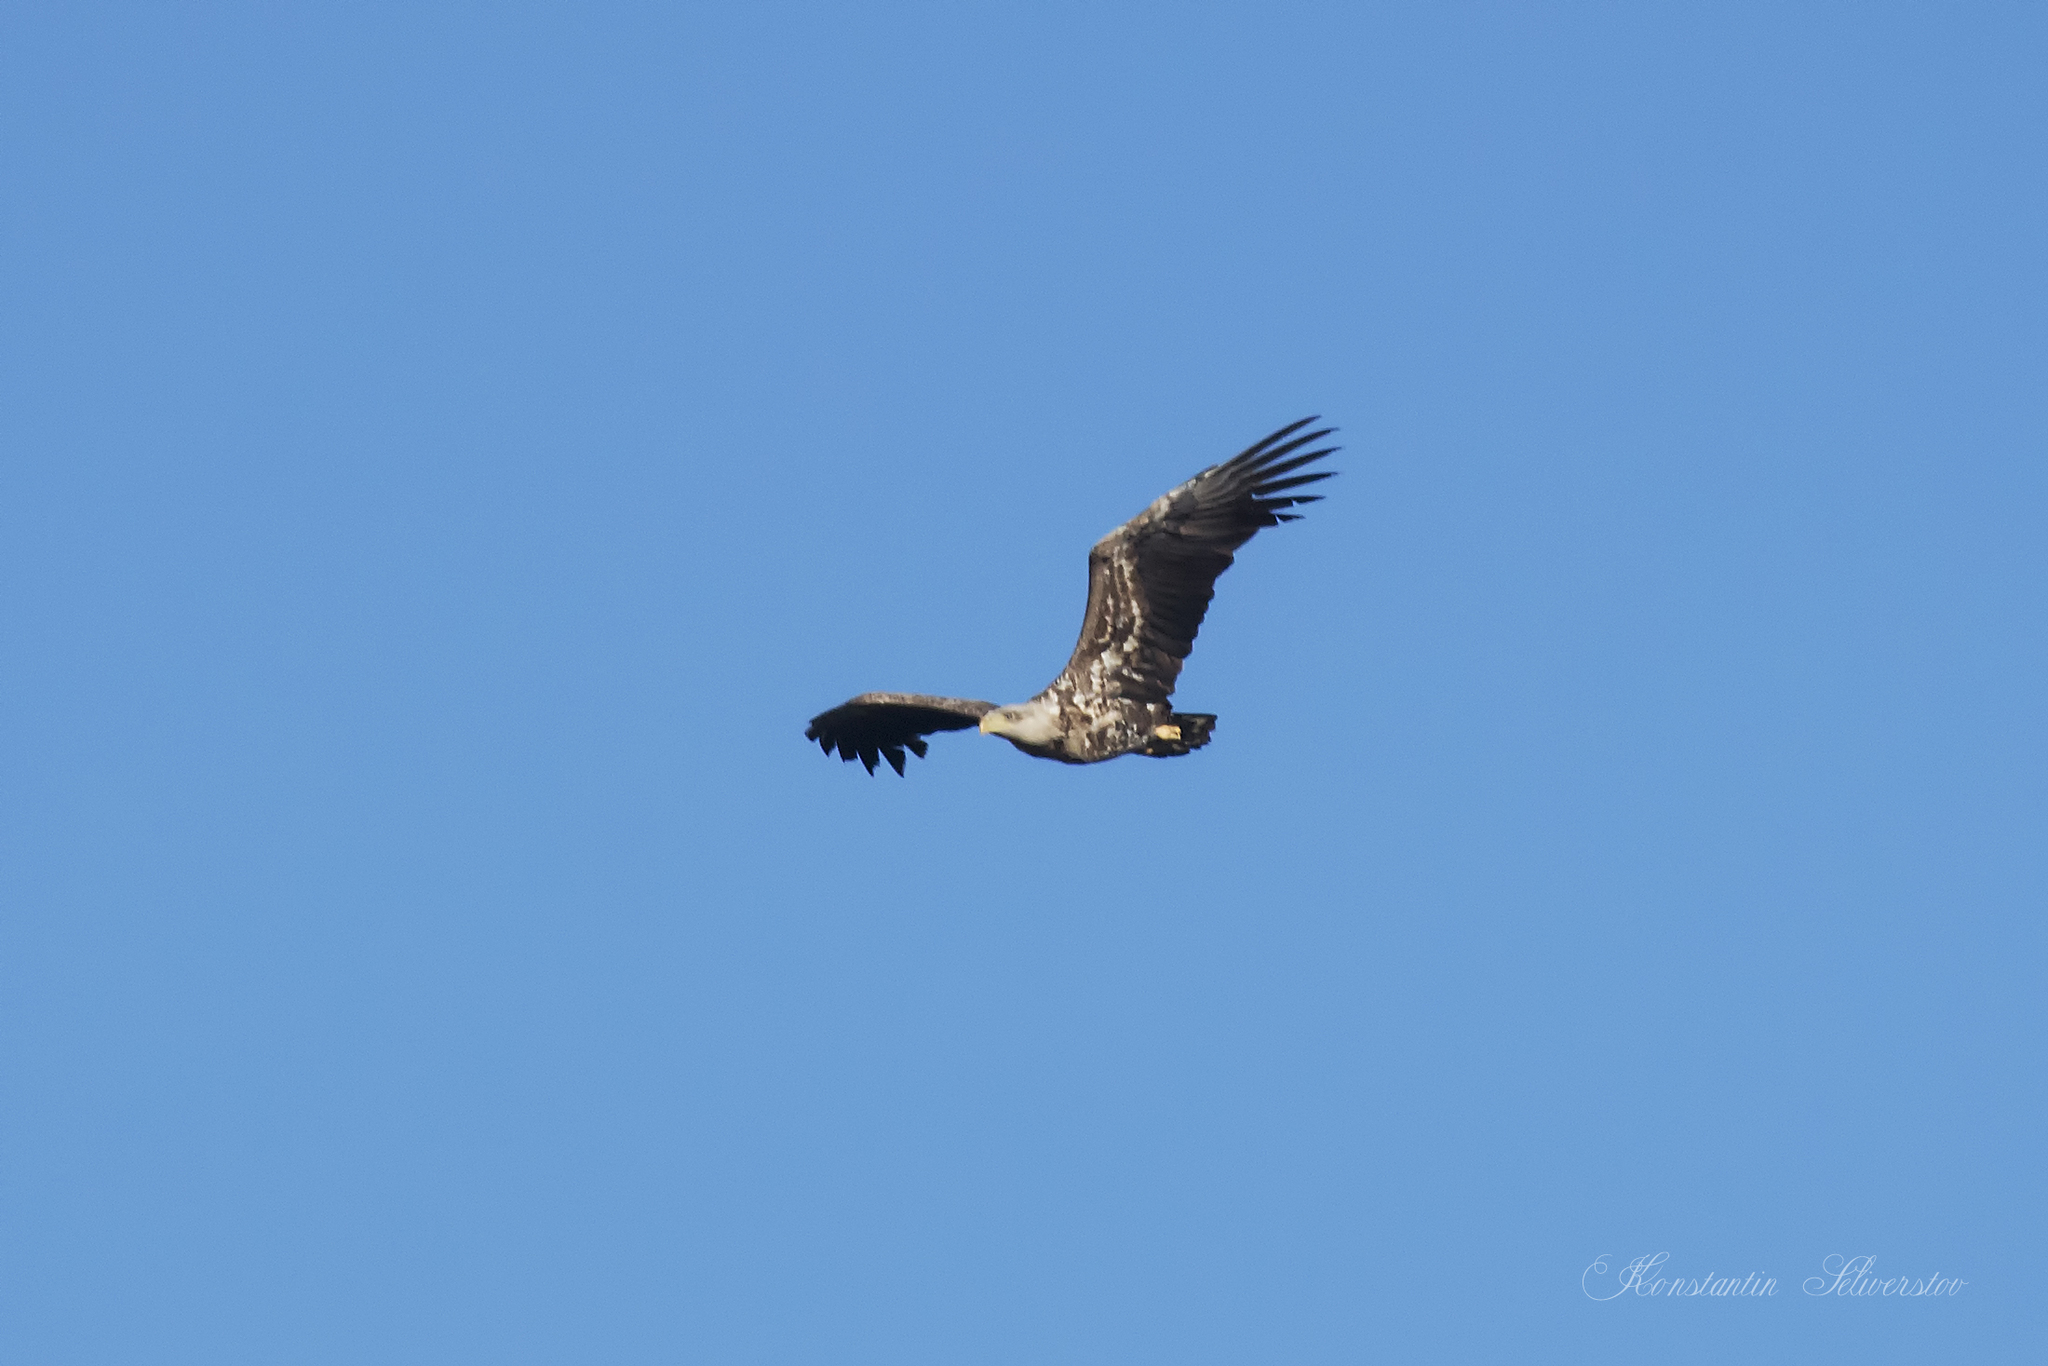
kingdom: Animalia
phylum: Chordata
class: Aves
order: Accipitriformes
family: Accipitridae
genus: Haliaeetus
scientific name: Haliaeetus albicilla
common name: White-tailed eagle
